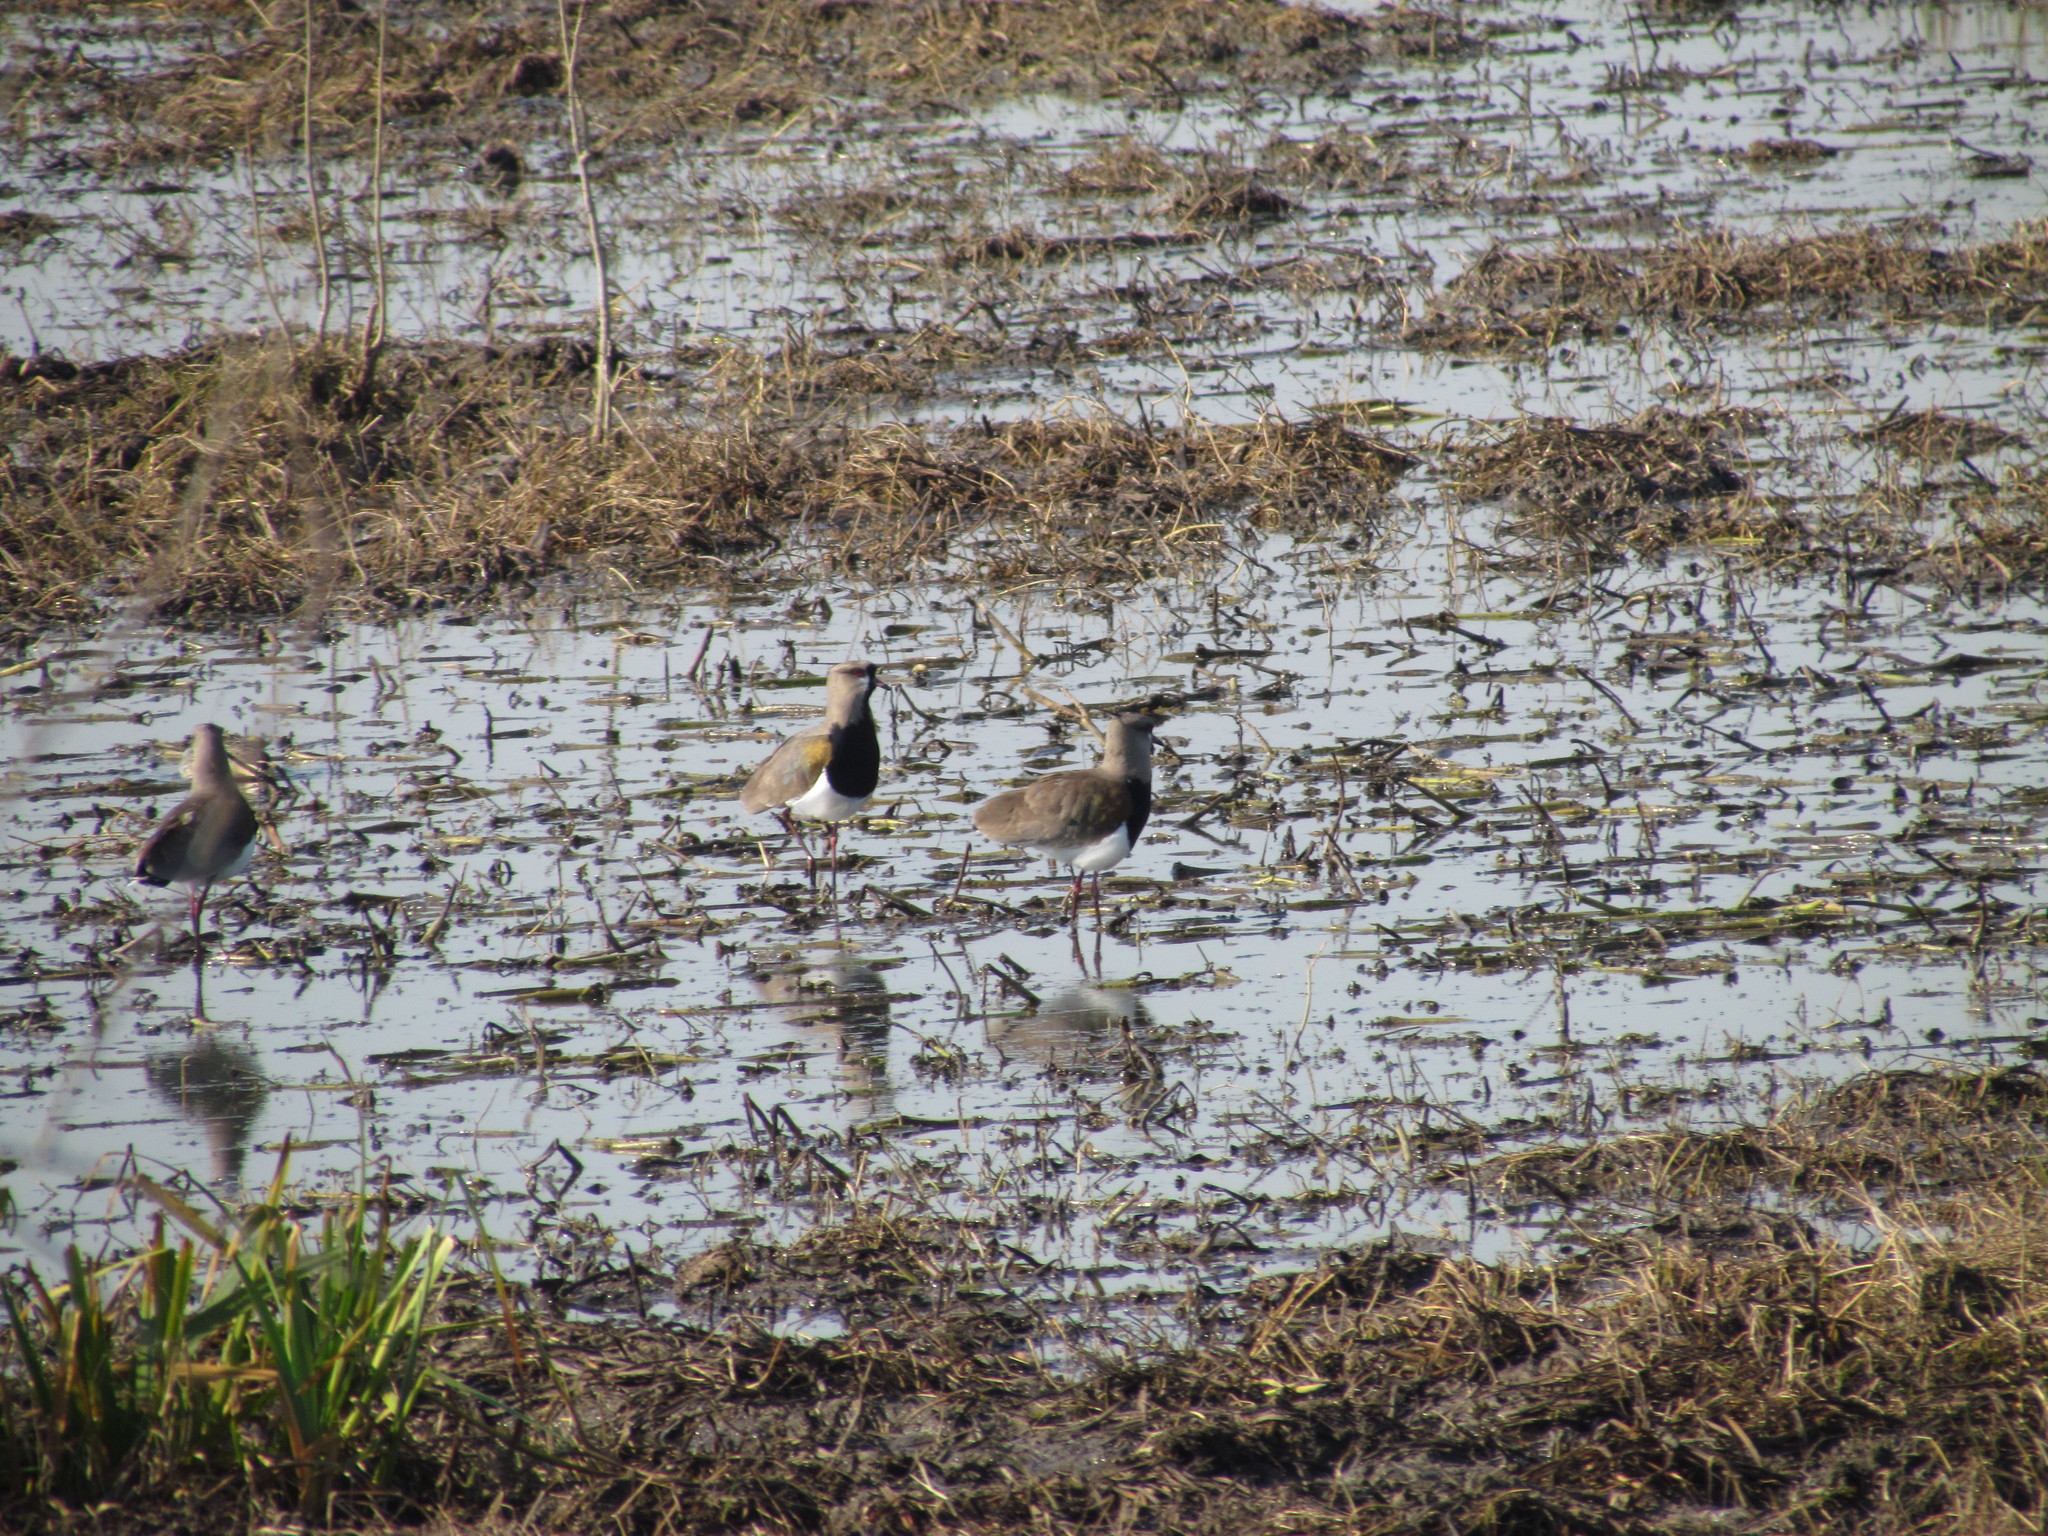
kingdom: Animalia
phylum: Chordata
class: Aves
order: Charadriiformes
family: Charadriidae
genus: Vanellus
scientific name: Vanellus chilensis
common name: Southern lapwing
